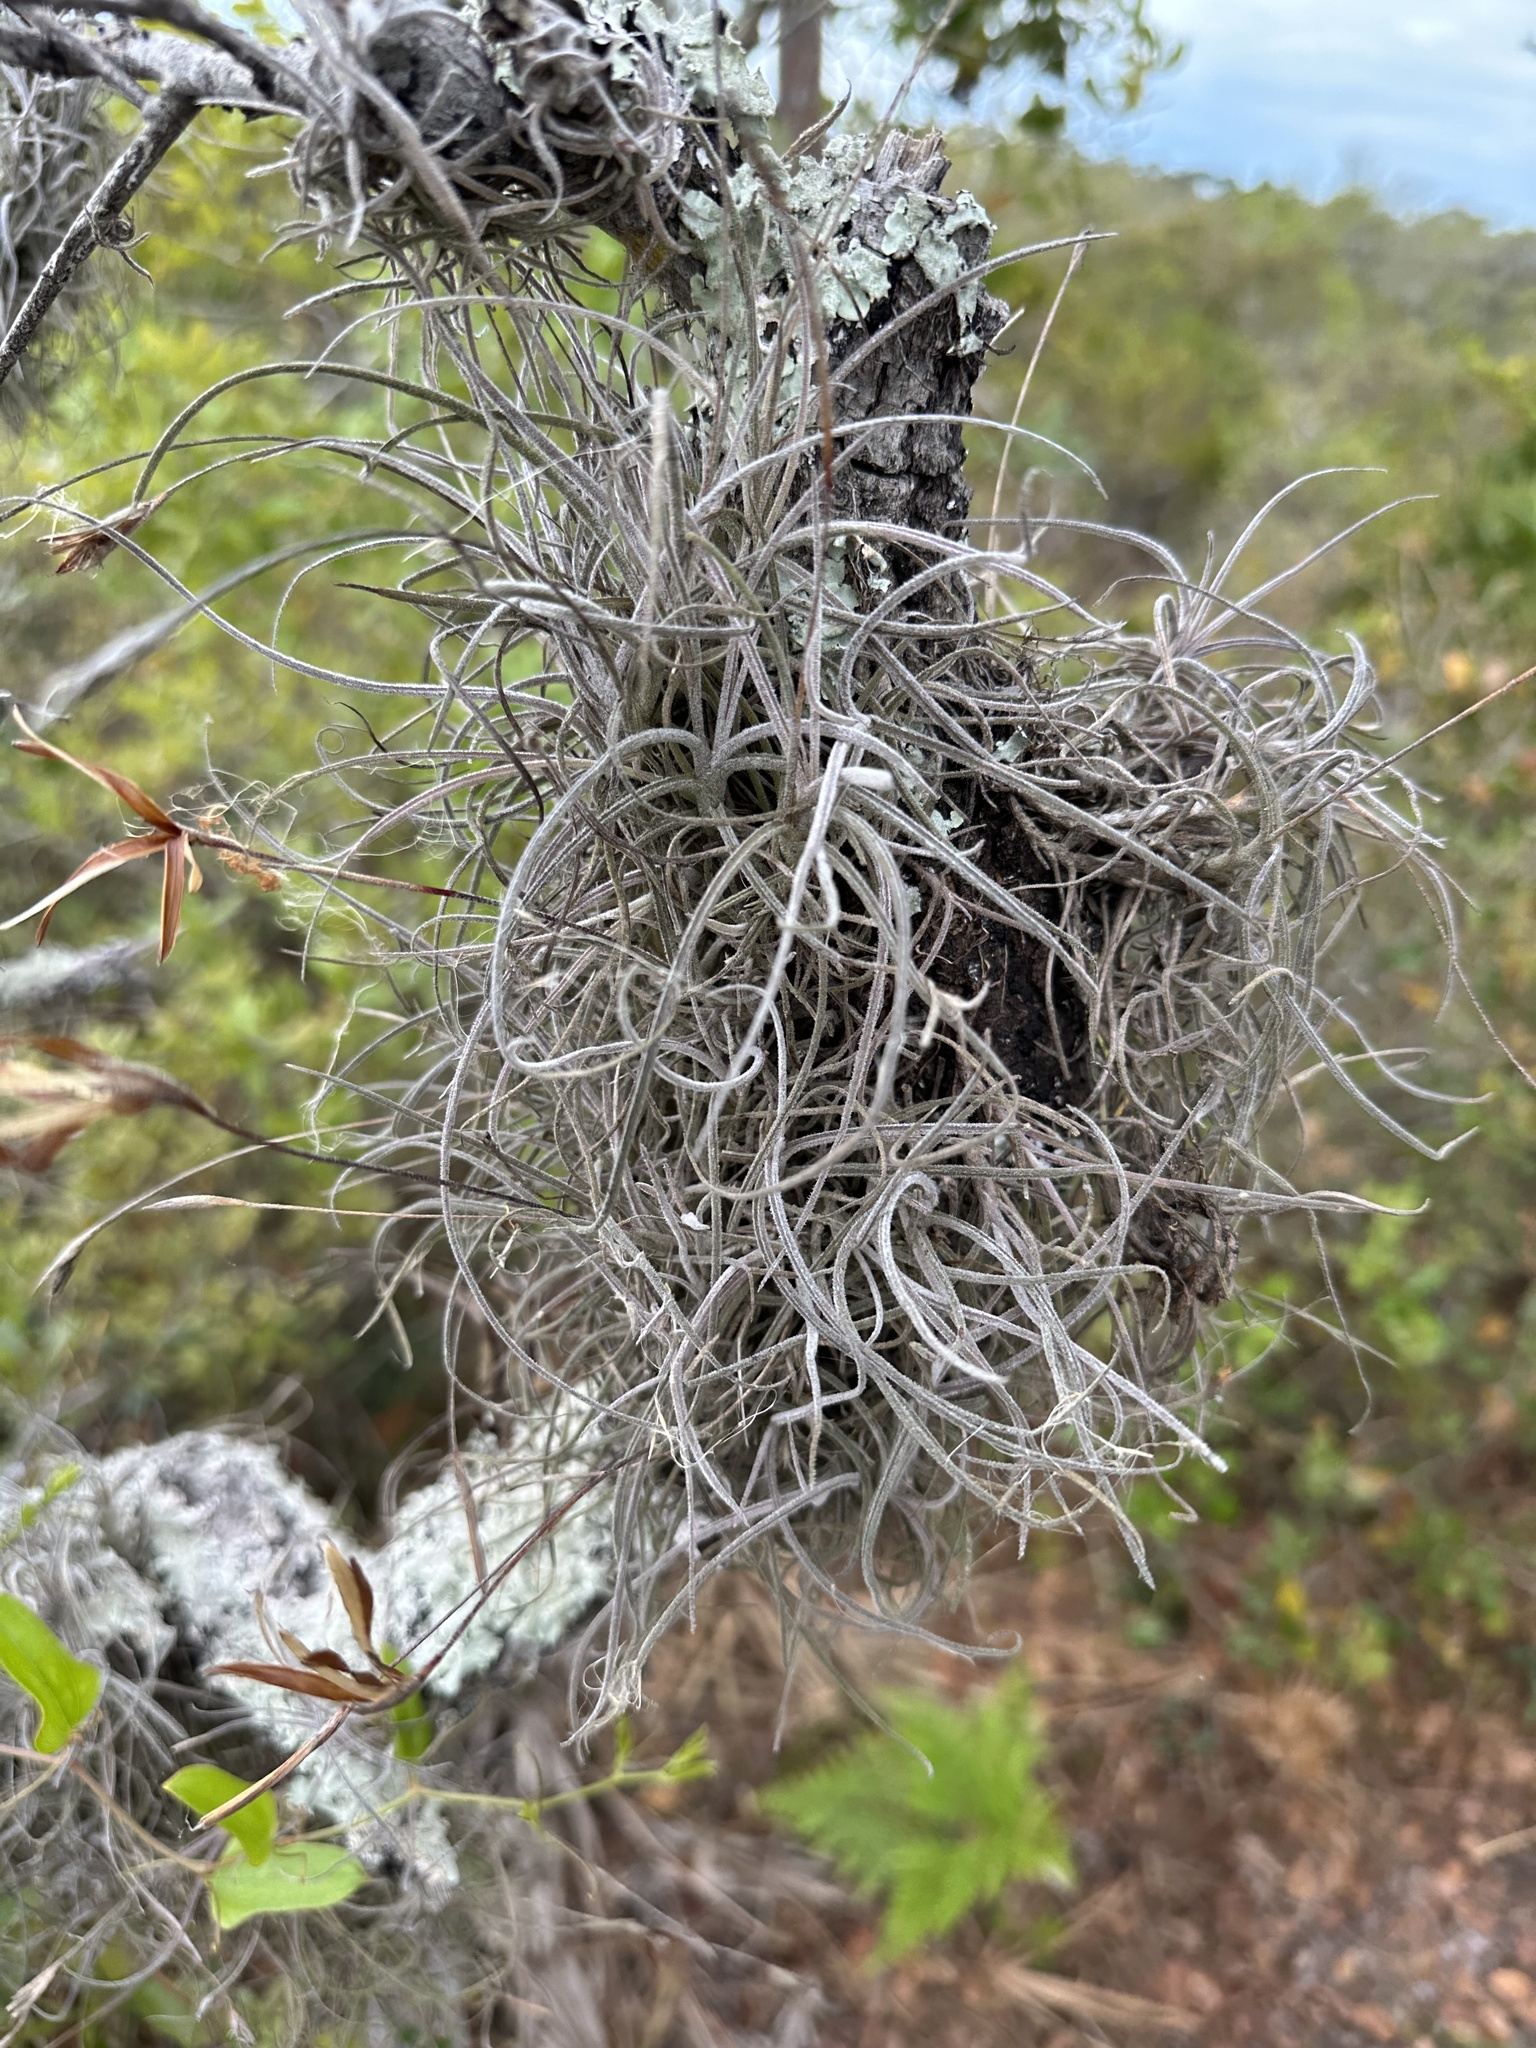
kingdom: Plantae
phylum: Tracheophyta
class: Liliopsida
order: Poales
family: Bromeliaceae
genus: Tillandsia
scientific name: Tillandsia recurvata
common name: Small ballmoss
